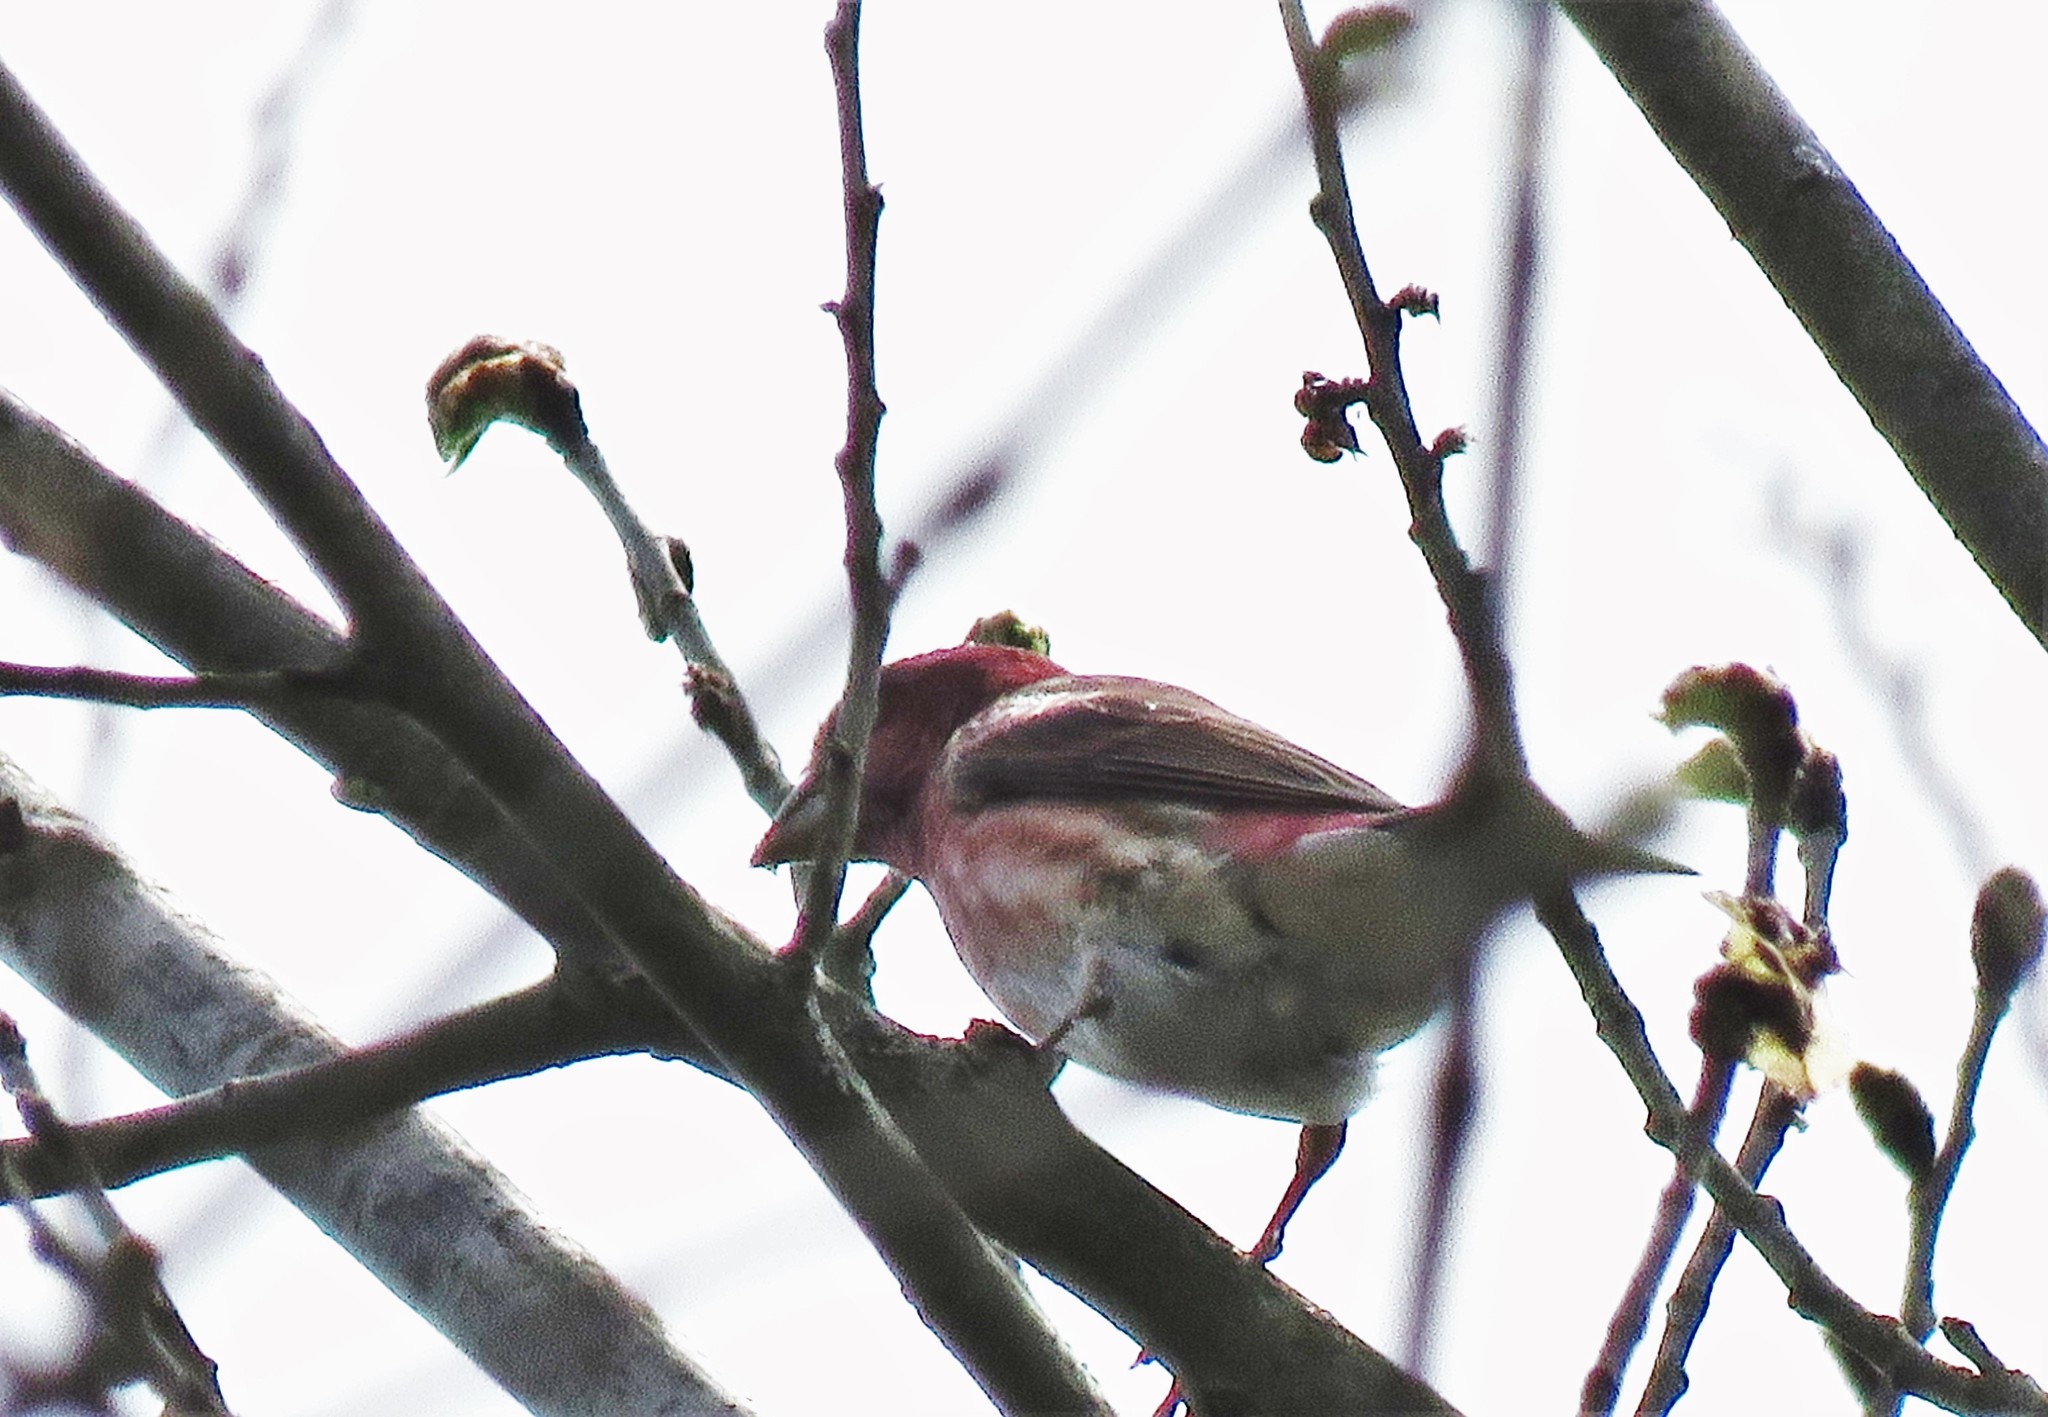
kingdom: Animalia
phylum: Chordata
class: Aves
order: Passeriformes
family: Fringillidae
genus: Haemorhous
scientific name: Haemorhous purpureus
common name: Purple finch
